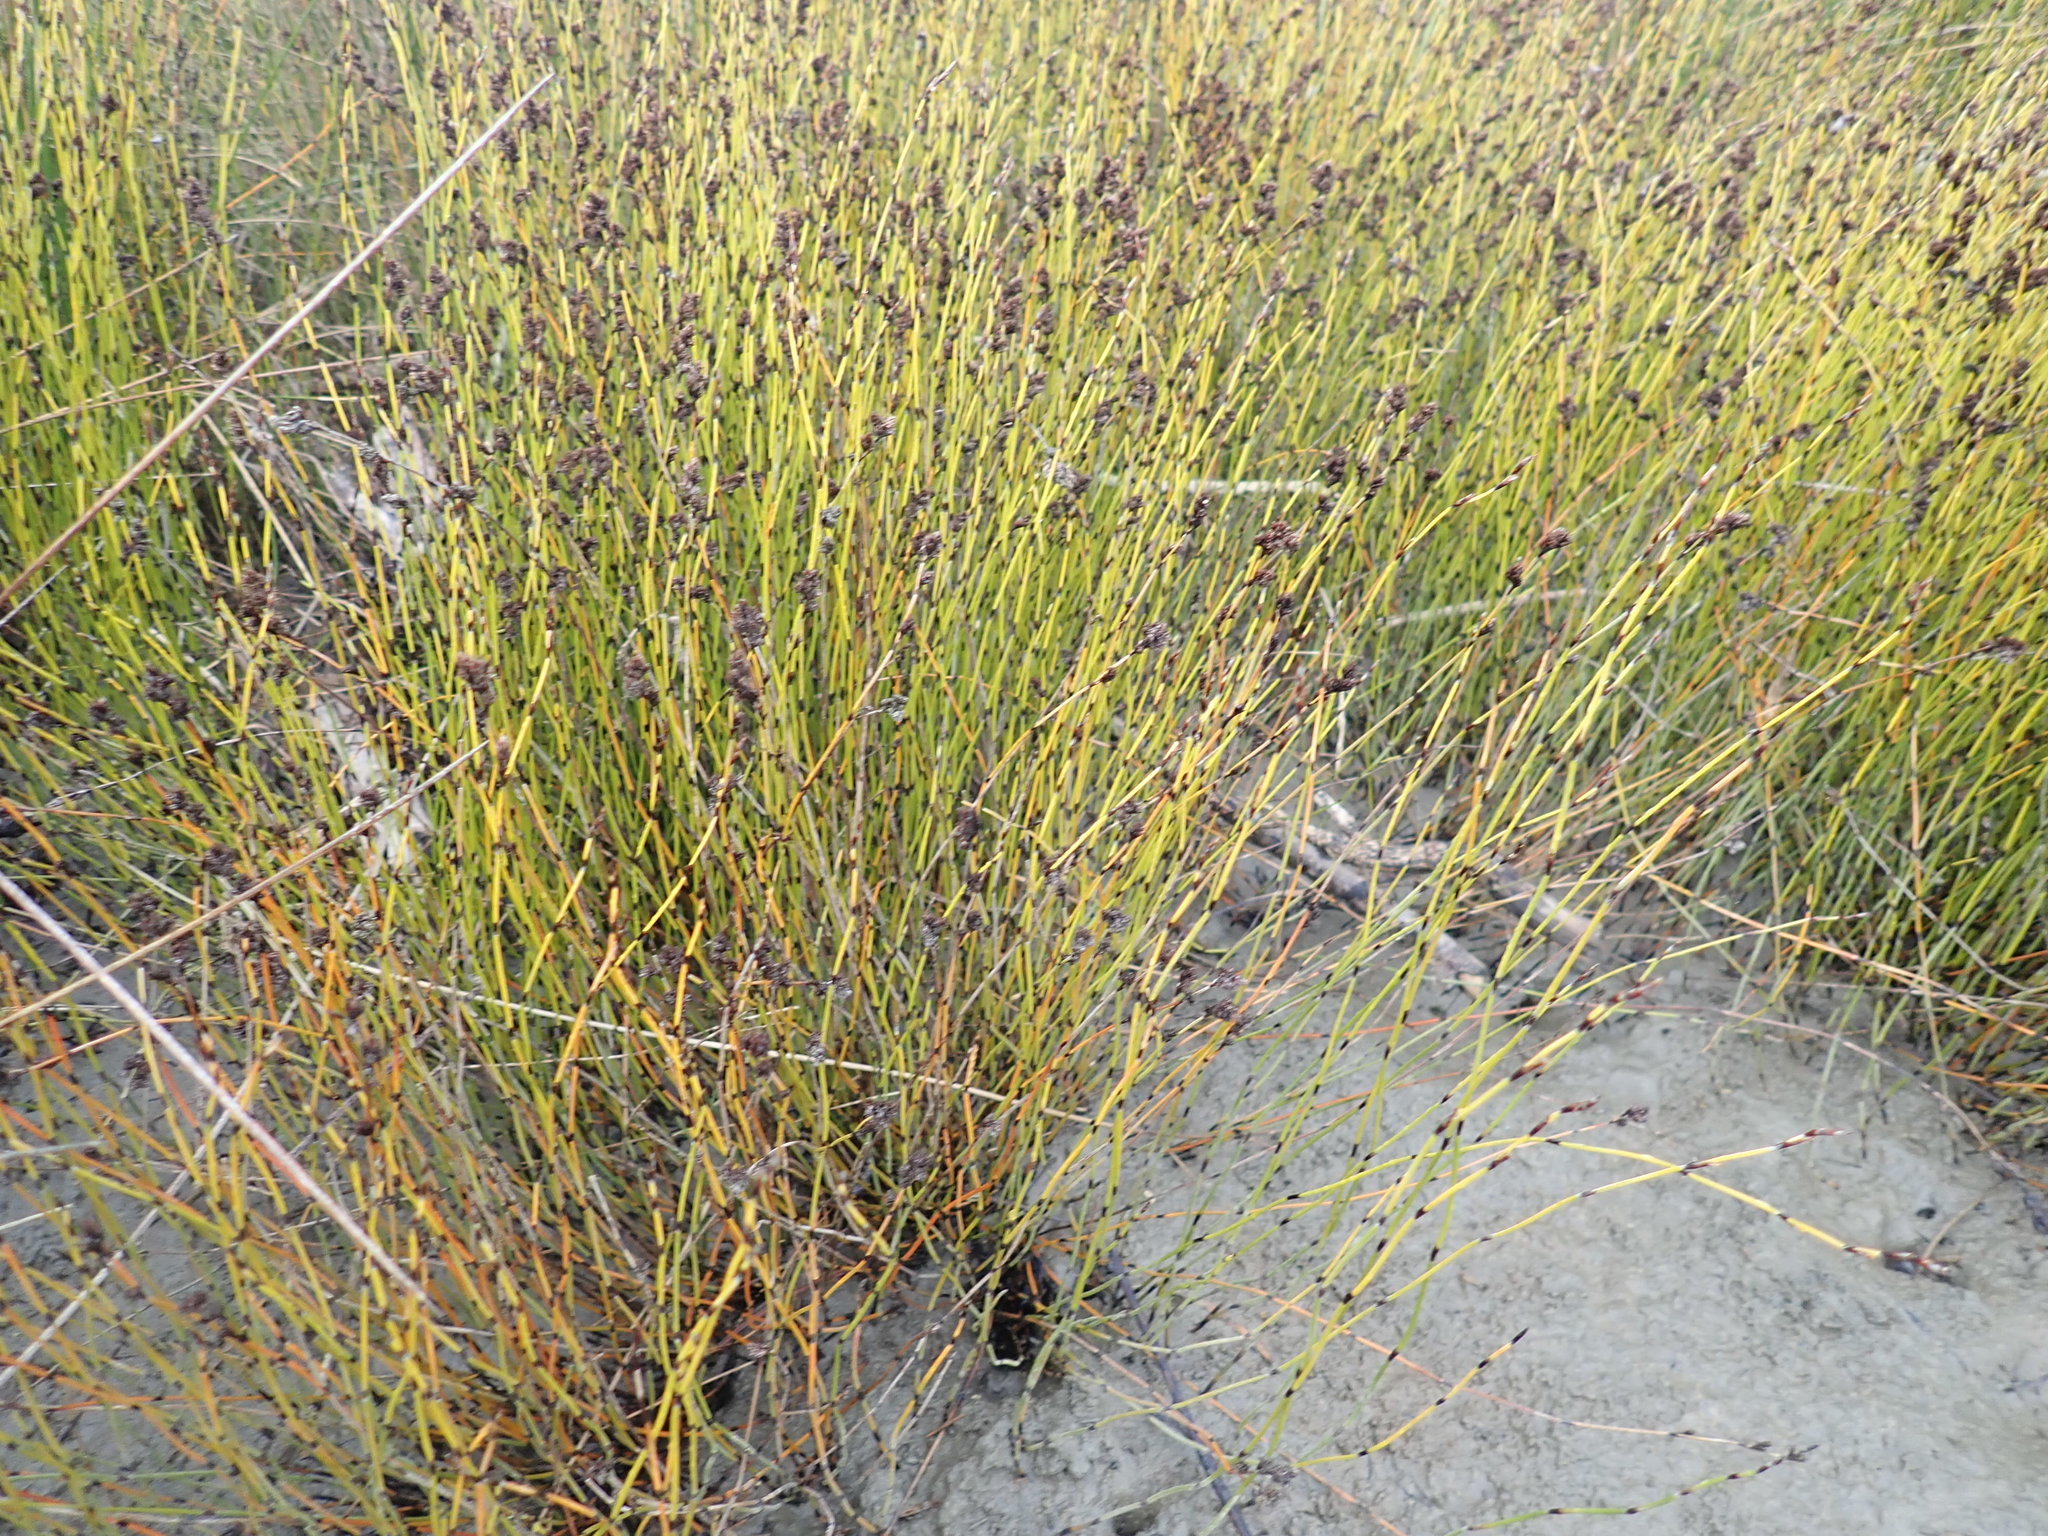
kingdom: Plantae
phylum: Tracheophyta
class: Liliopsida
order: Poales
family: Restionaceae
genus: Apodasmia
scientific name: Apodasmia similis
